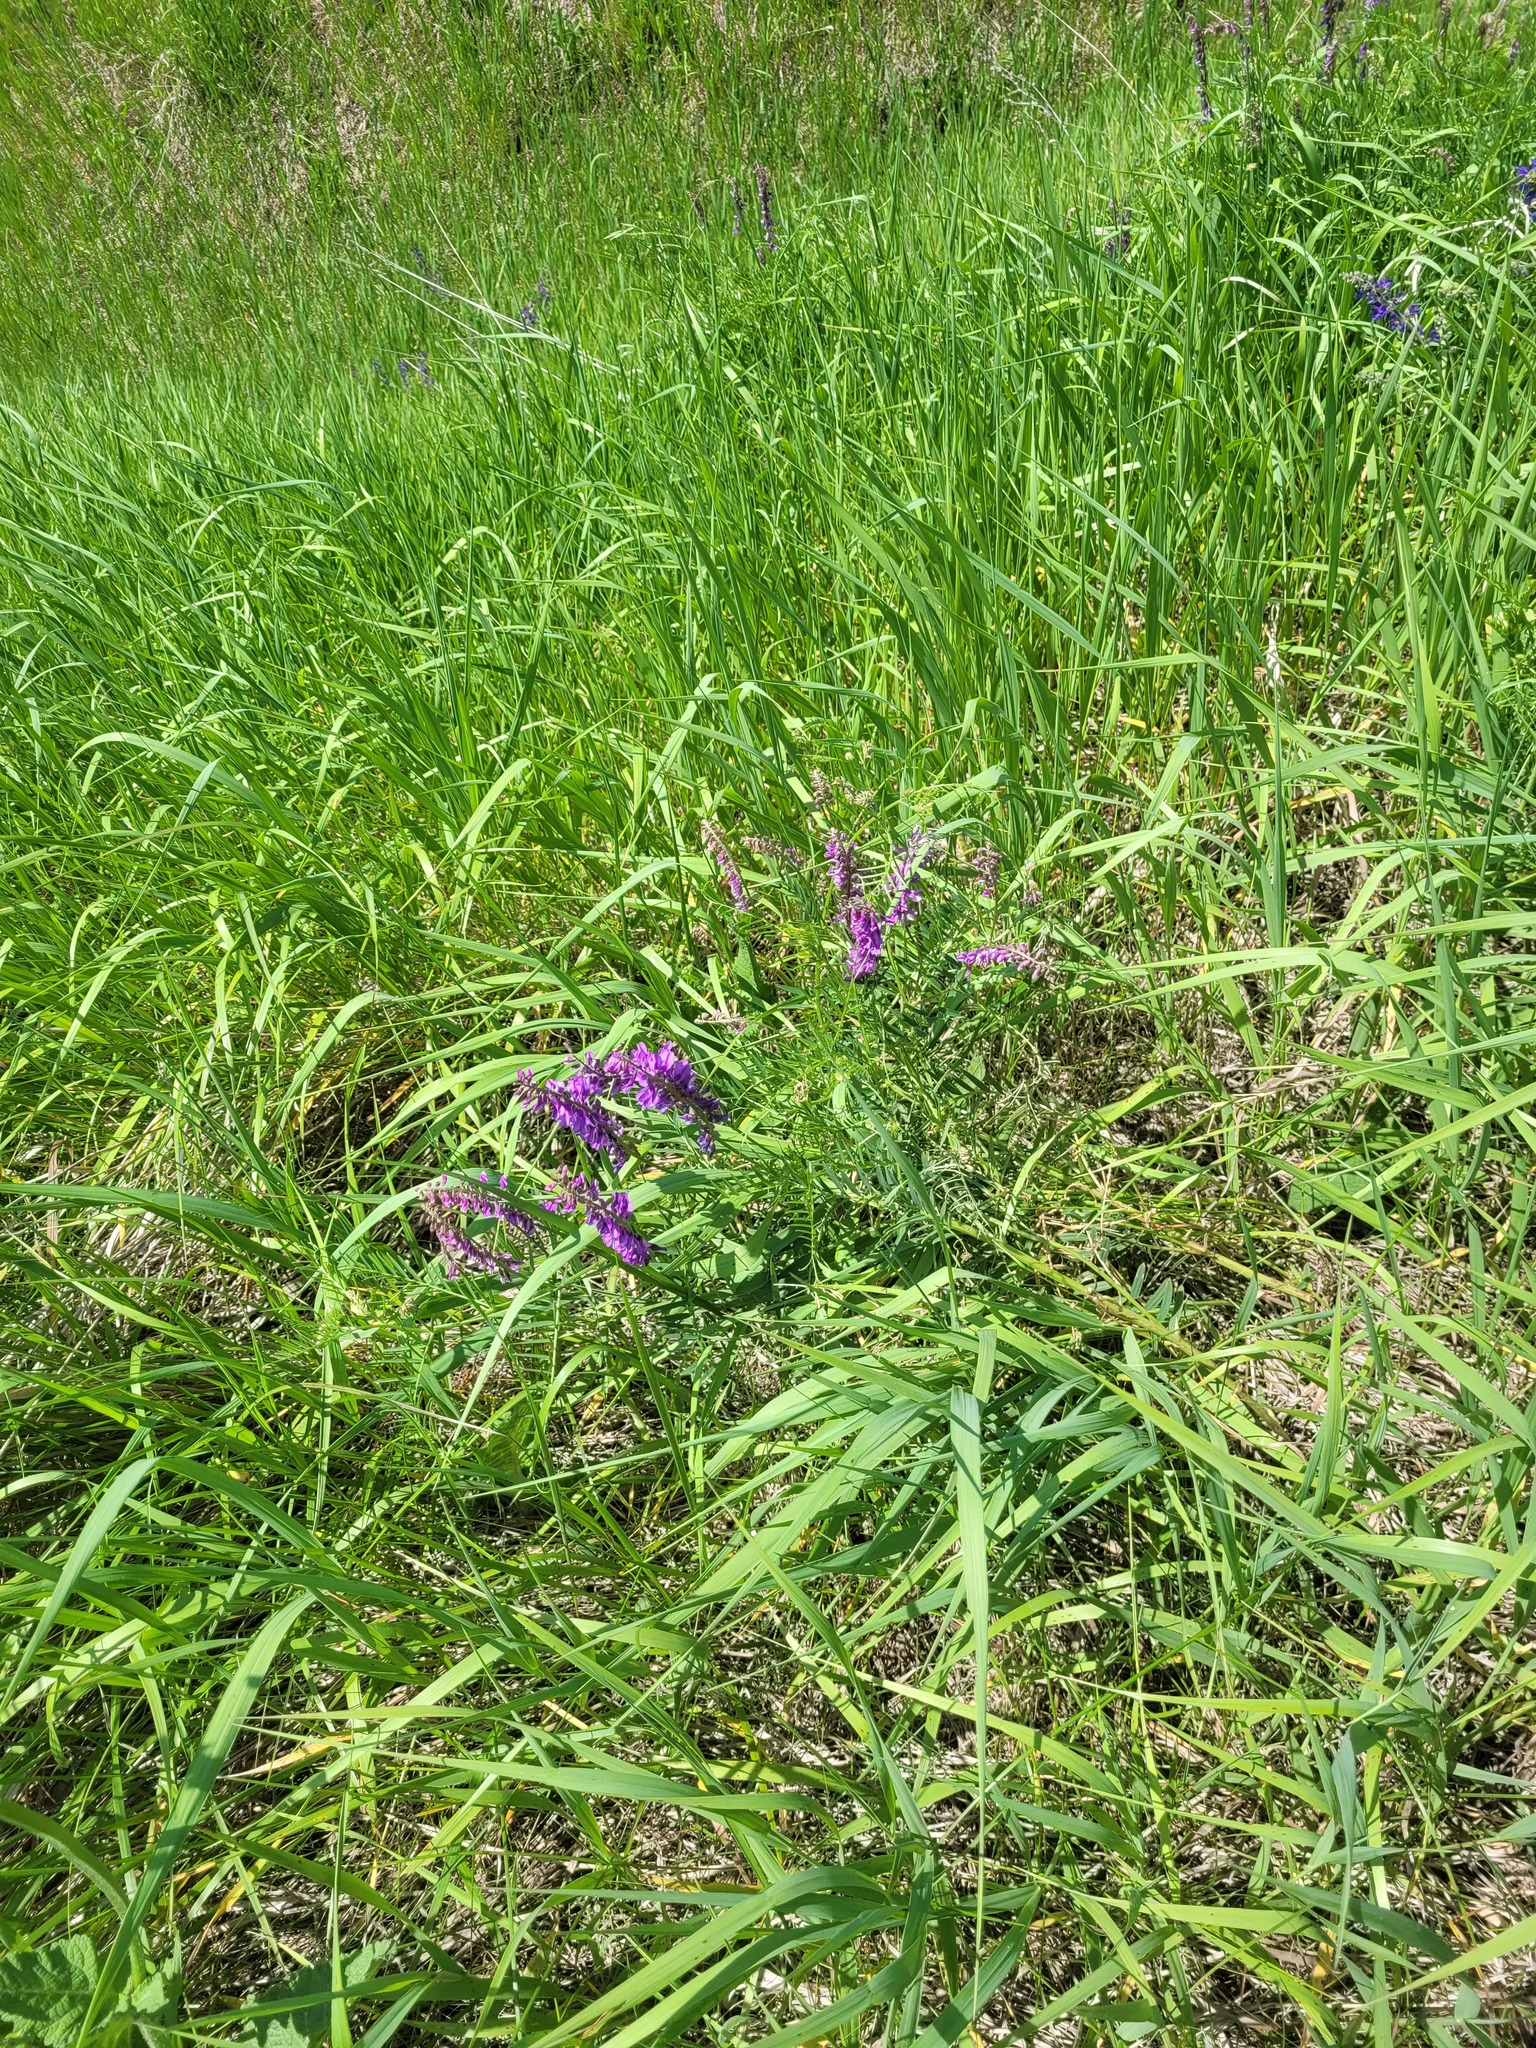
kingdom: Plantae
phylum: Tracheophyta
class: Magnoliopsida
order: Fabales
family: Fabaceae
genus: Vicia
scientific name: Vicia tenuifolia
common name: Fine-leaved vetch
